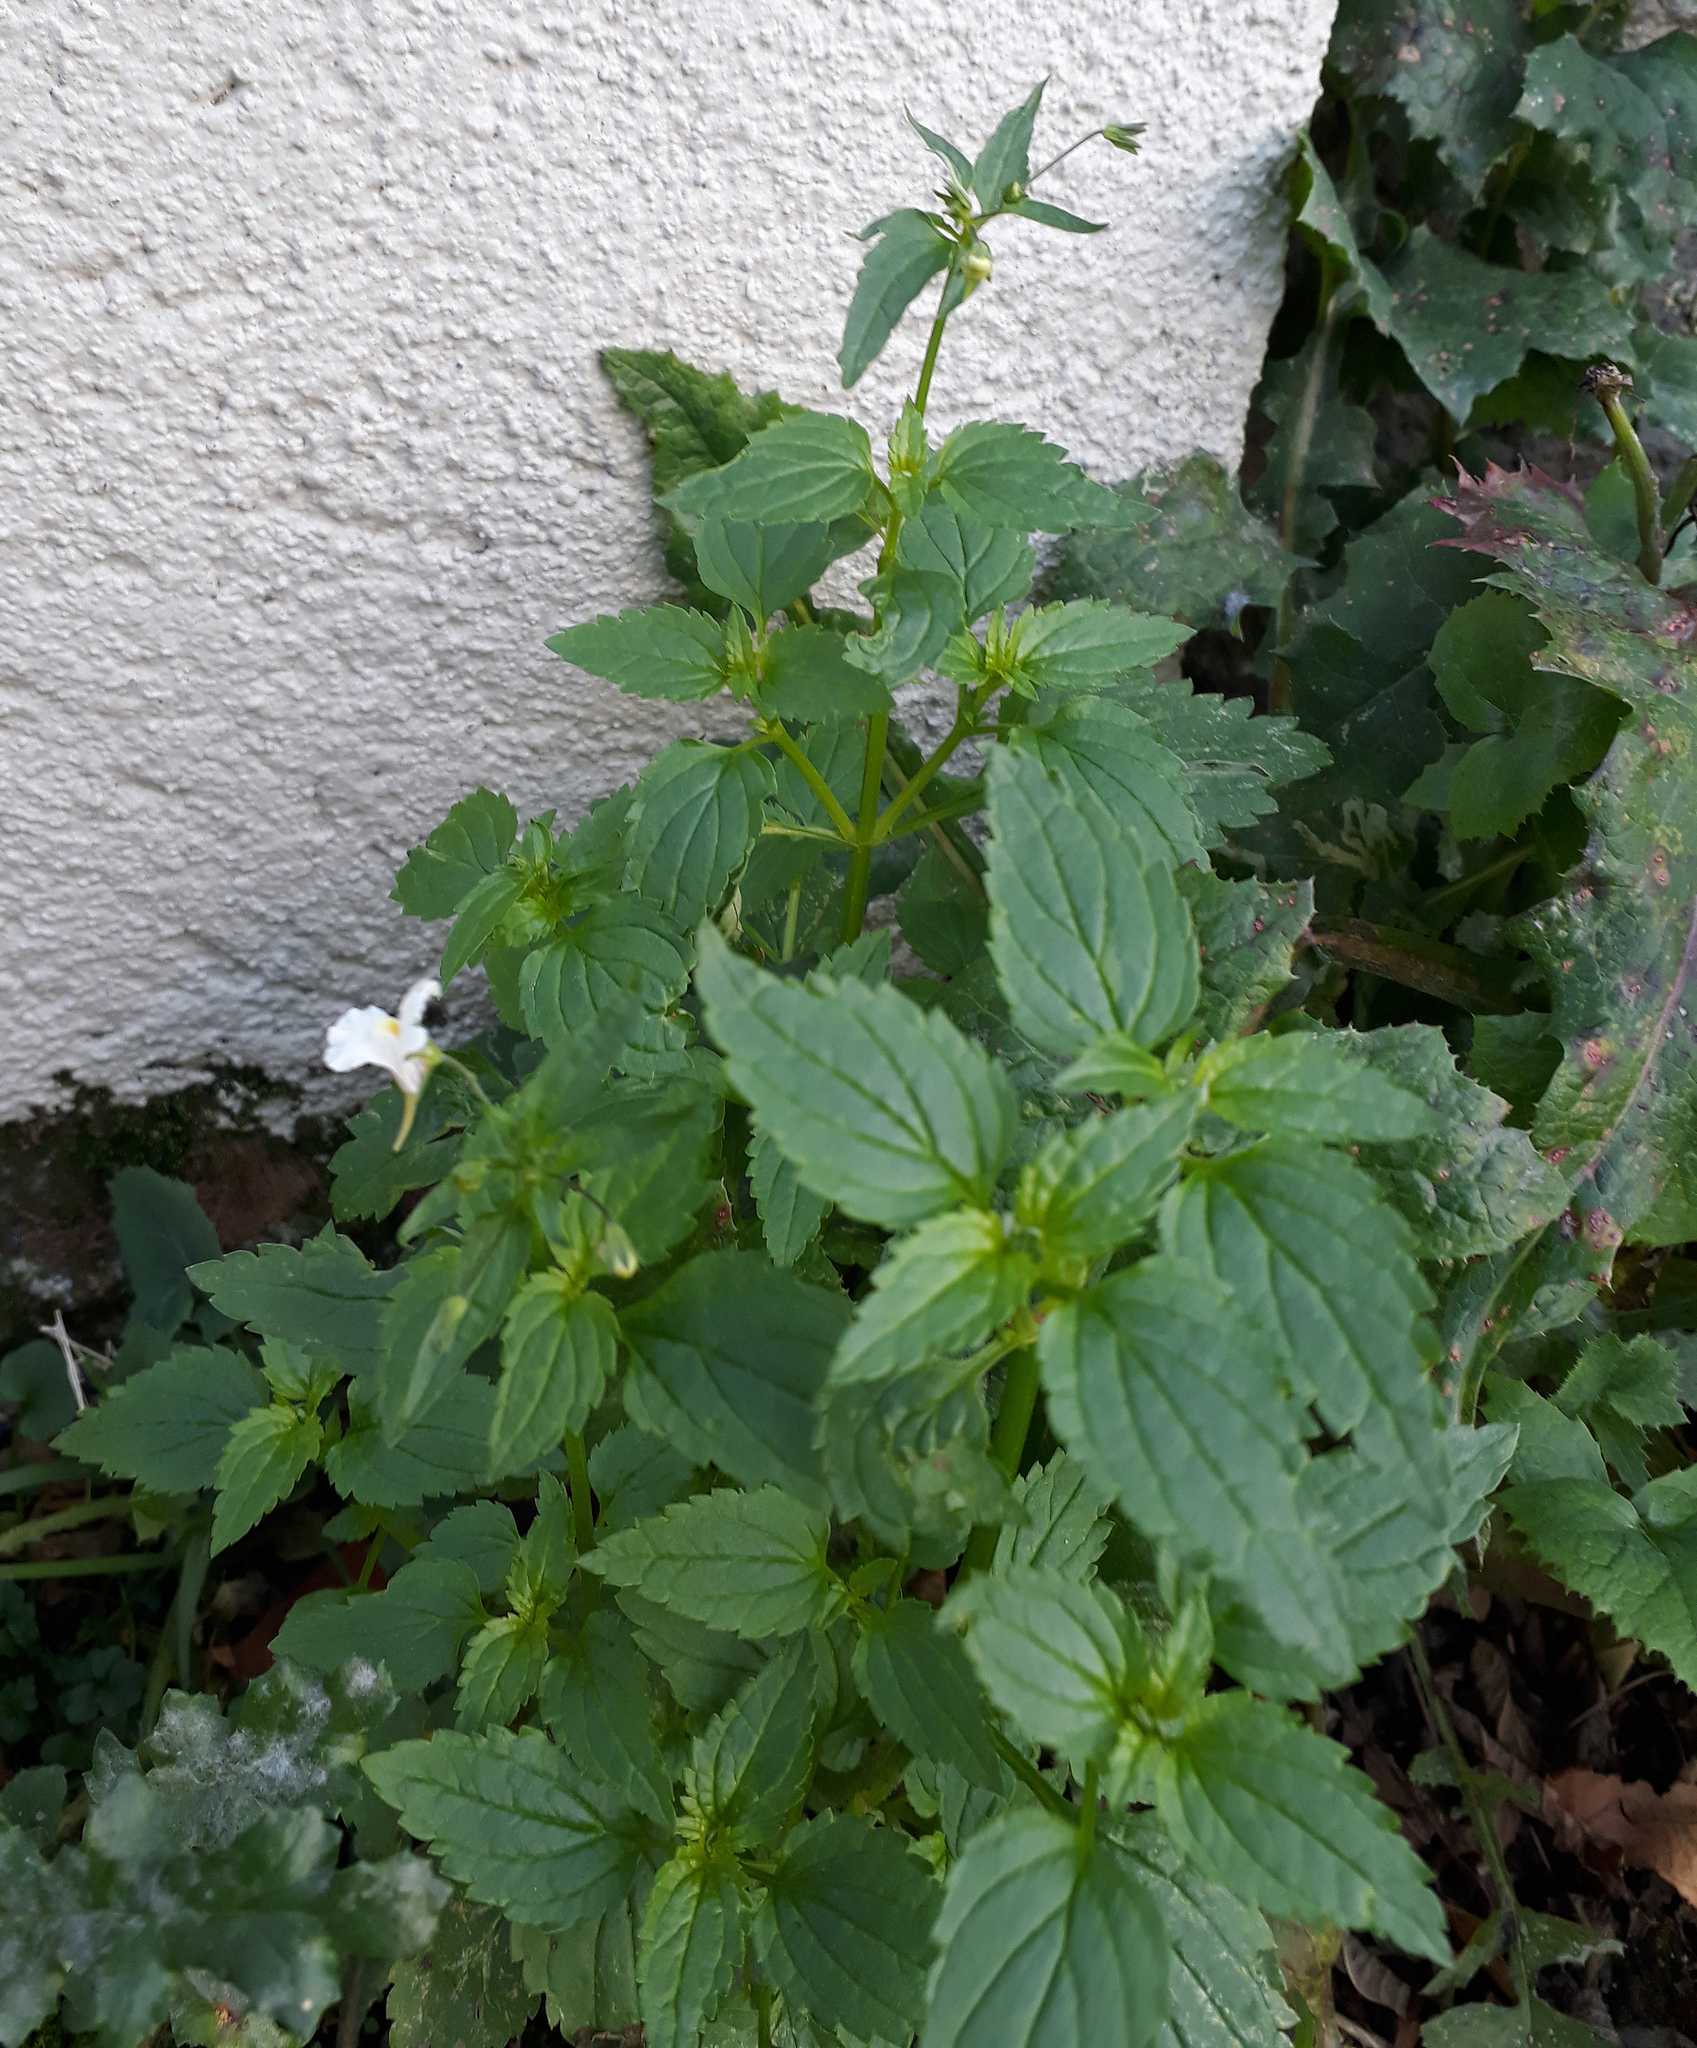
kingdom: Plantae
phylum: Tracheophyta
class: Magnoliopsida
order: Lamiales
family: Scrophulariaceae
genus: Nemesia
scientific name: Nemesia floribunda
